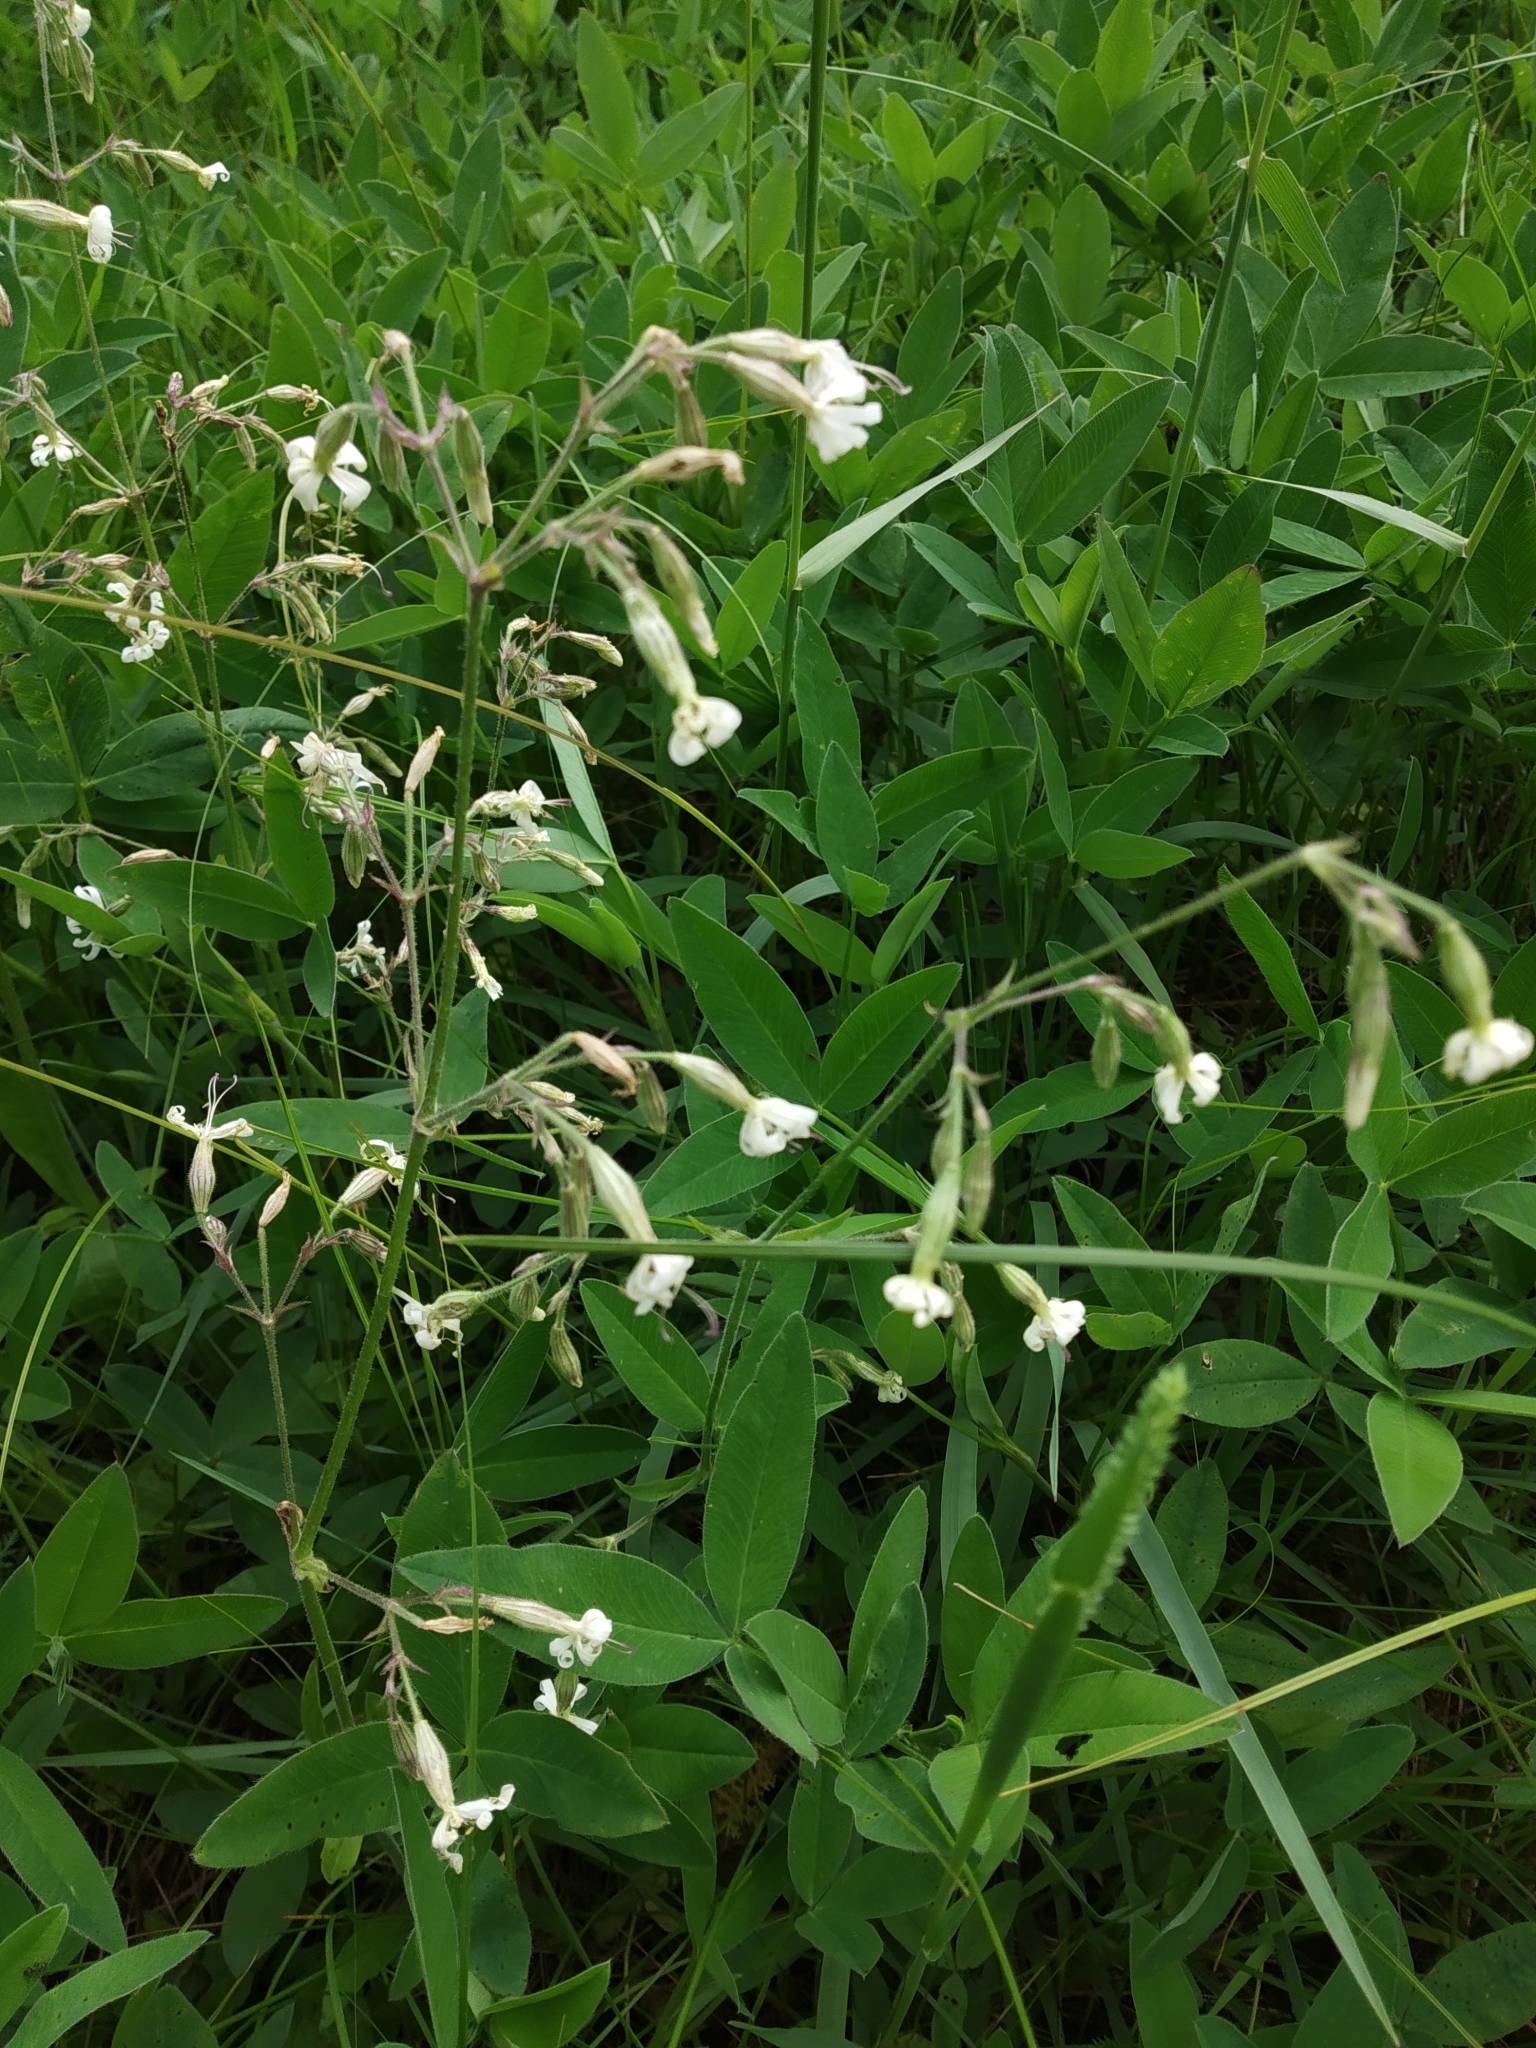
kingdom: Plantae
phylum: Tracheophyta
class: Magnoliopsida
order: Caryophyllales
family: Caryophyllaceae
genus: Silene
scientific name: Silene nutans
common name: Nottingham catchfly
